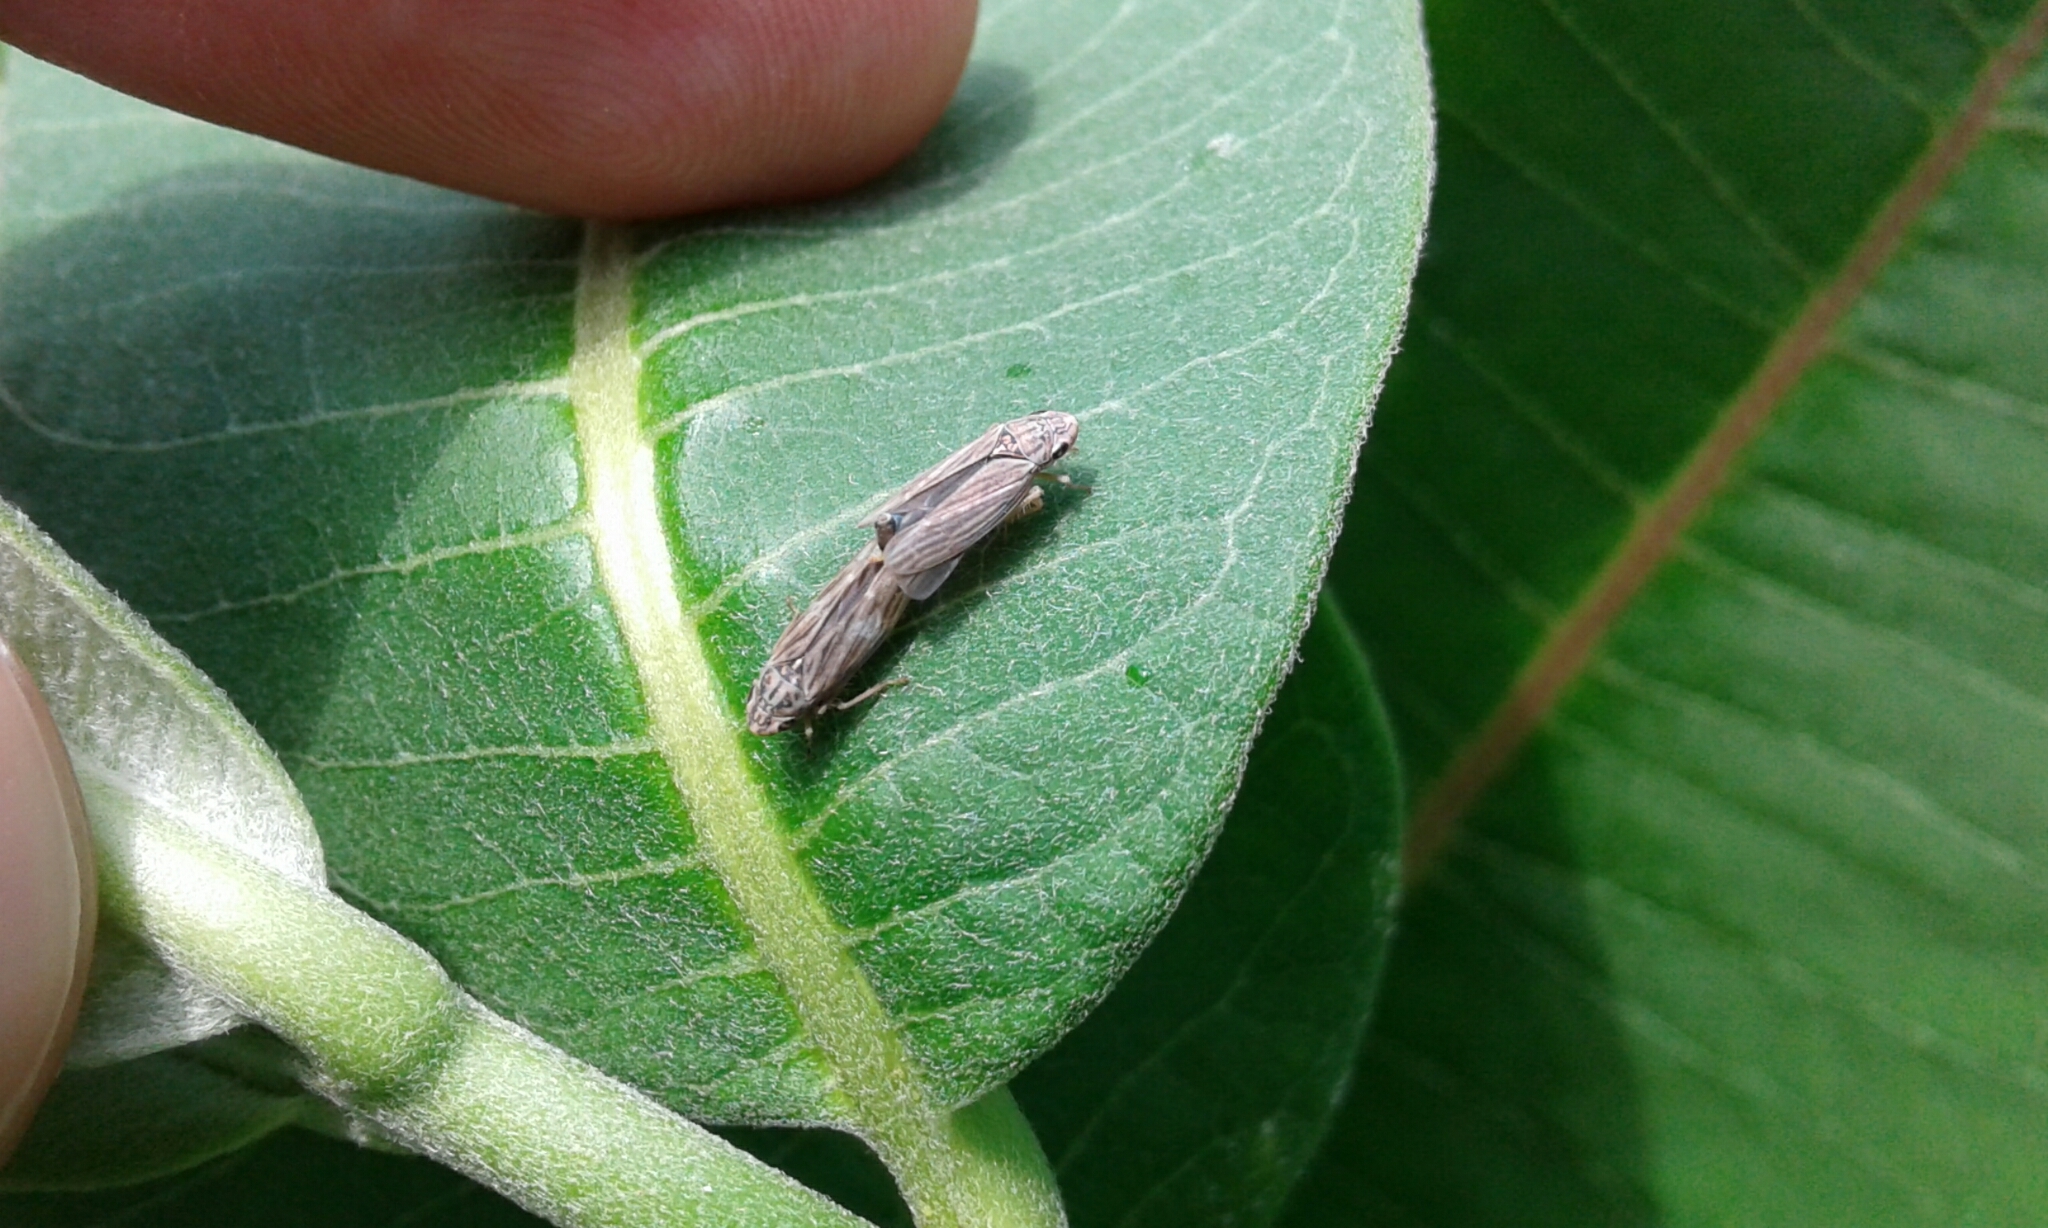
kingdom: Animalia
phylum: Arthropoda
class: Insecta
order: Hemiptera
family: Cicadellidae
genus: Neokolla
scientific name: Neokolla hieroglyphica
